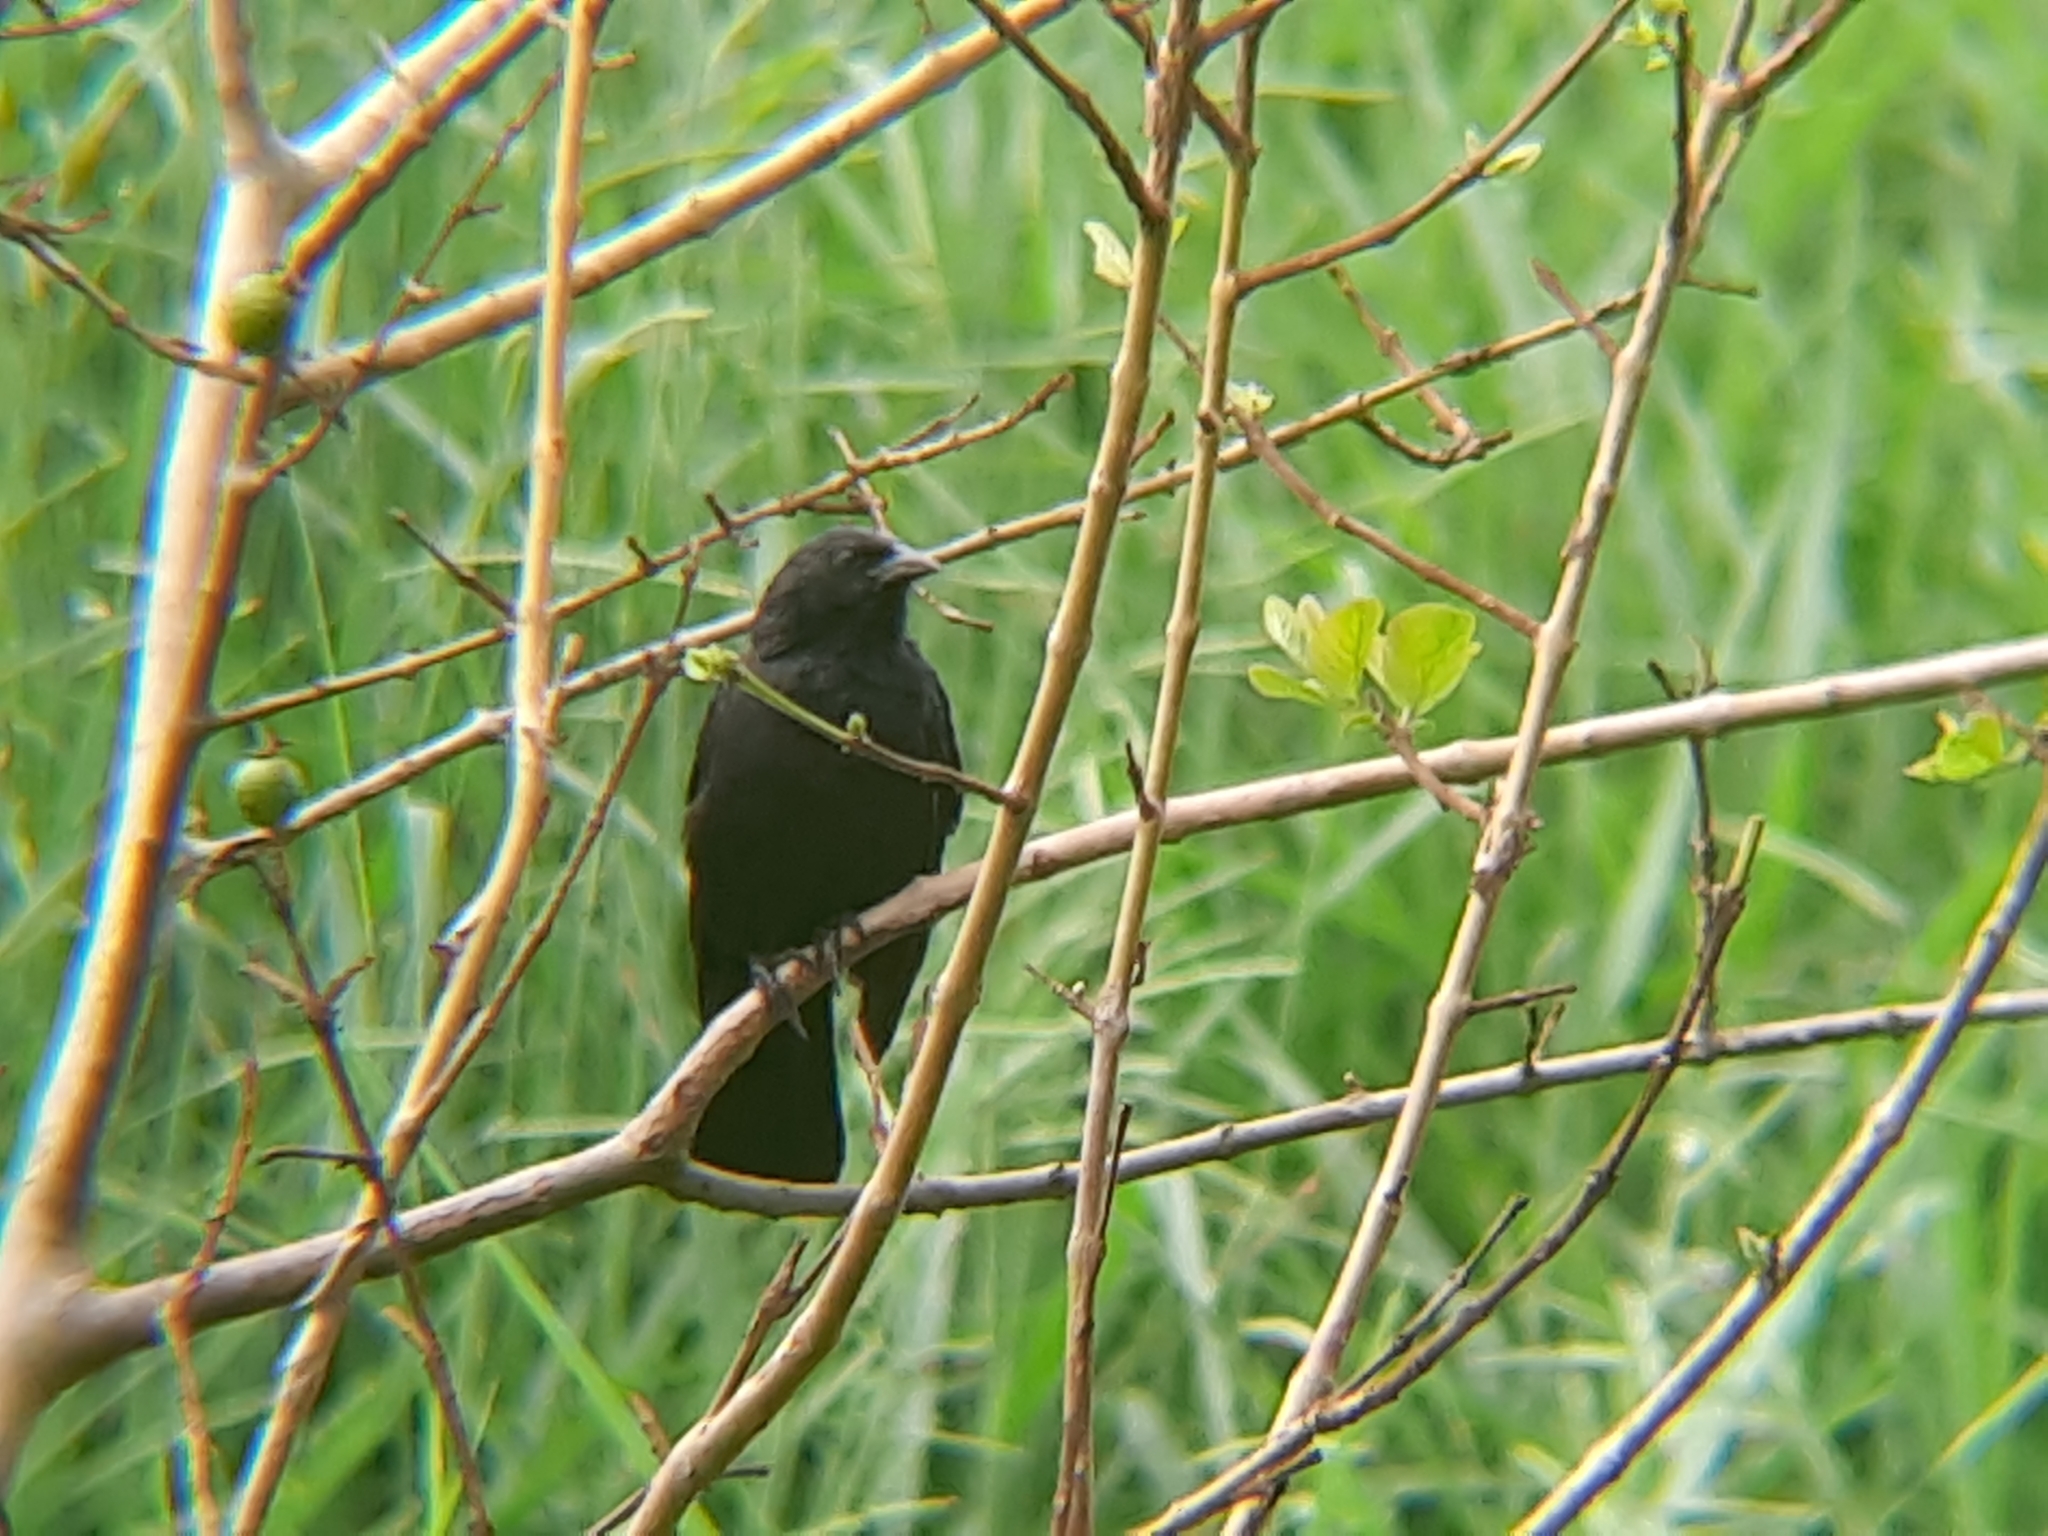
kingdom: Animalia
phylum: Chordata
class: Aves
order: Passeriformes
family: Icteridae
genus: Gnorimopsar
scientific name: Gnorimopsar chopi
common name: Chopi blackbird
